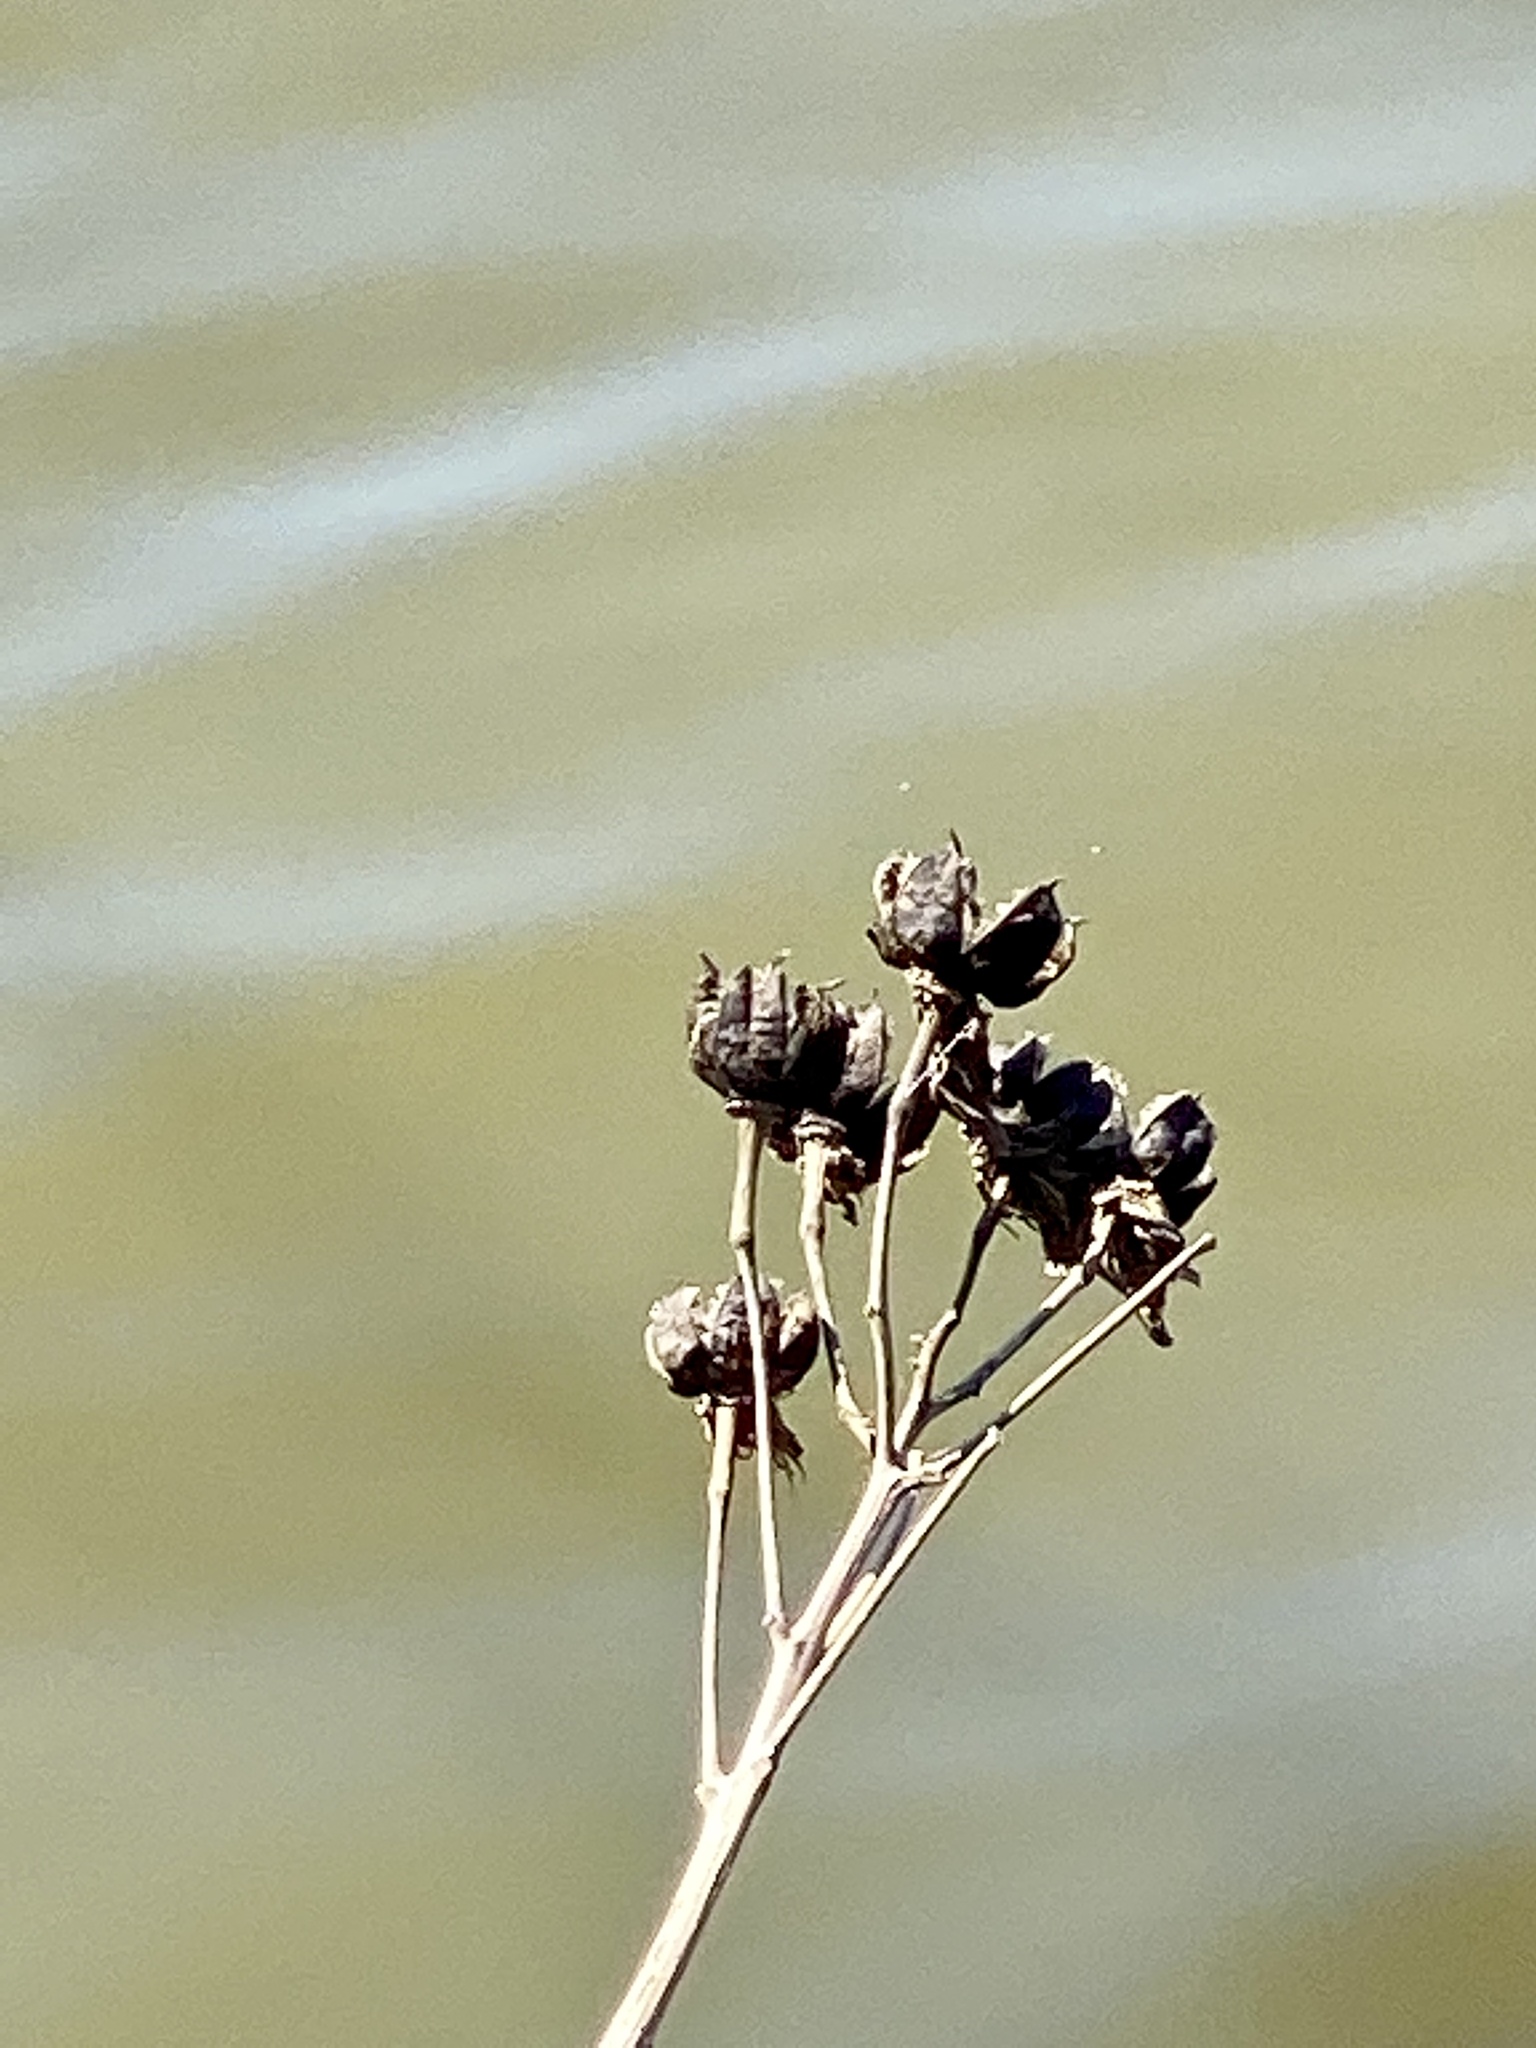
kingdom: Plantae
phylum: Tracheophyta
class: Magnoliopsida
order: Malvales
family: Malvaceae
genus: Hibiscus
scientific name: Hibiscus moscheutos
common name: Common rose-mallow
